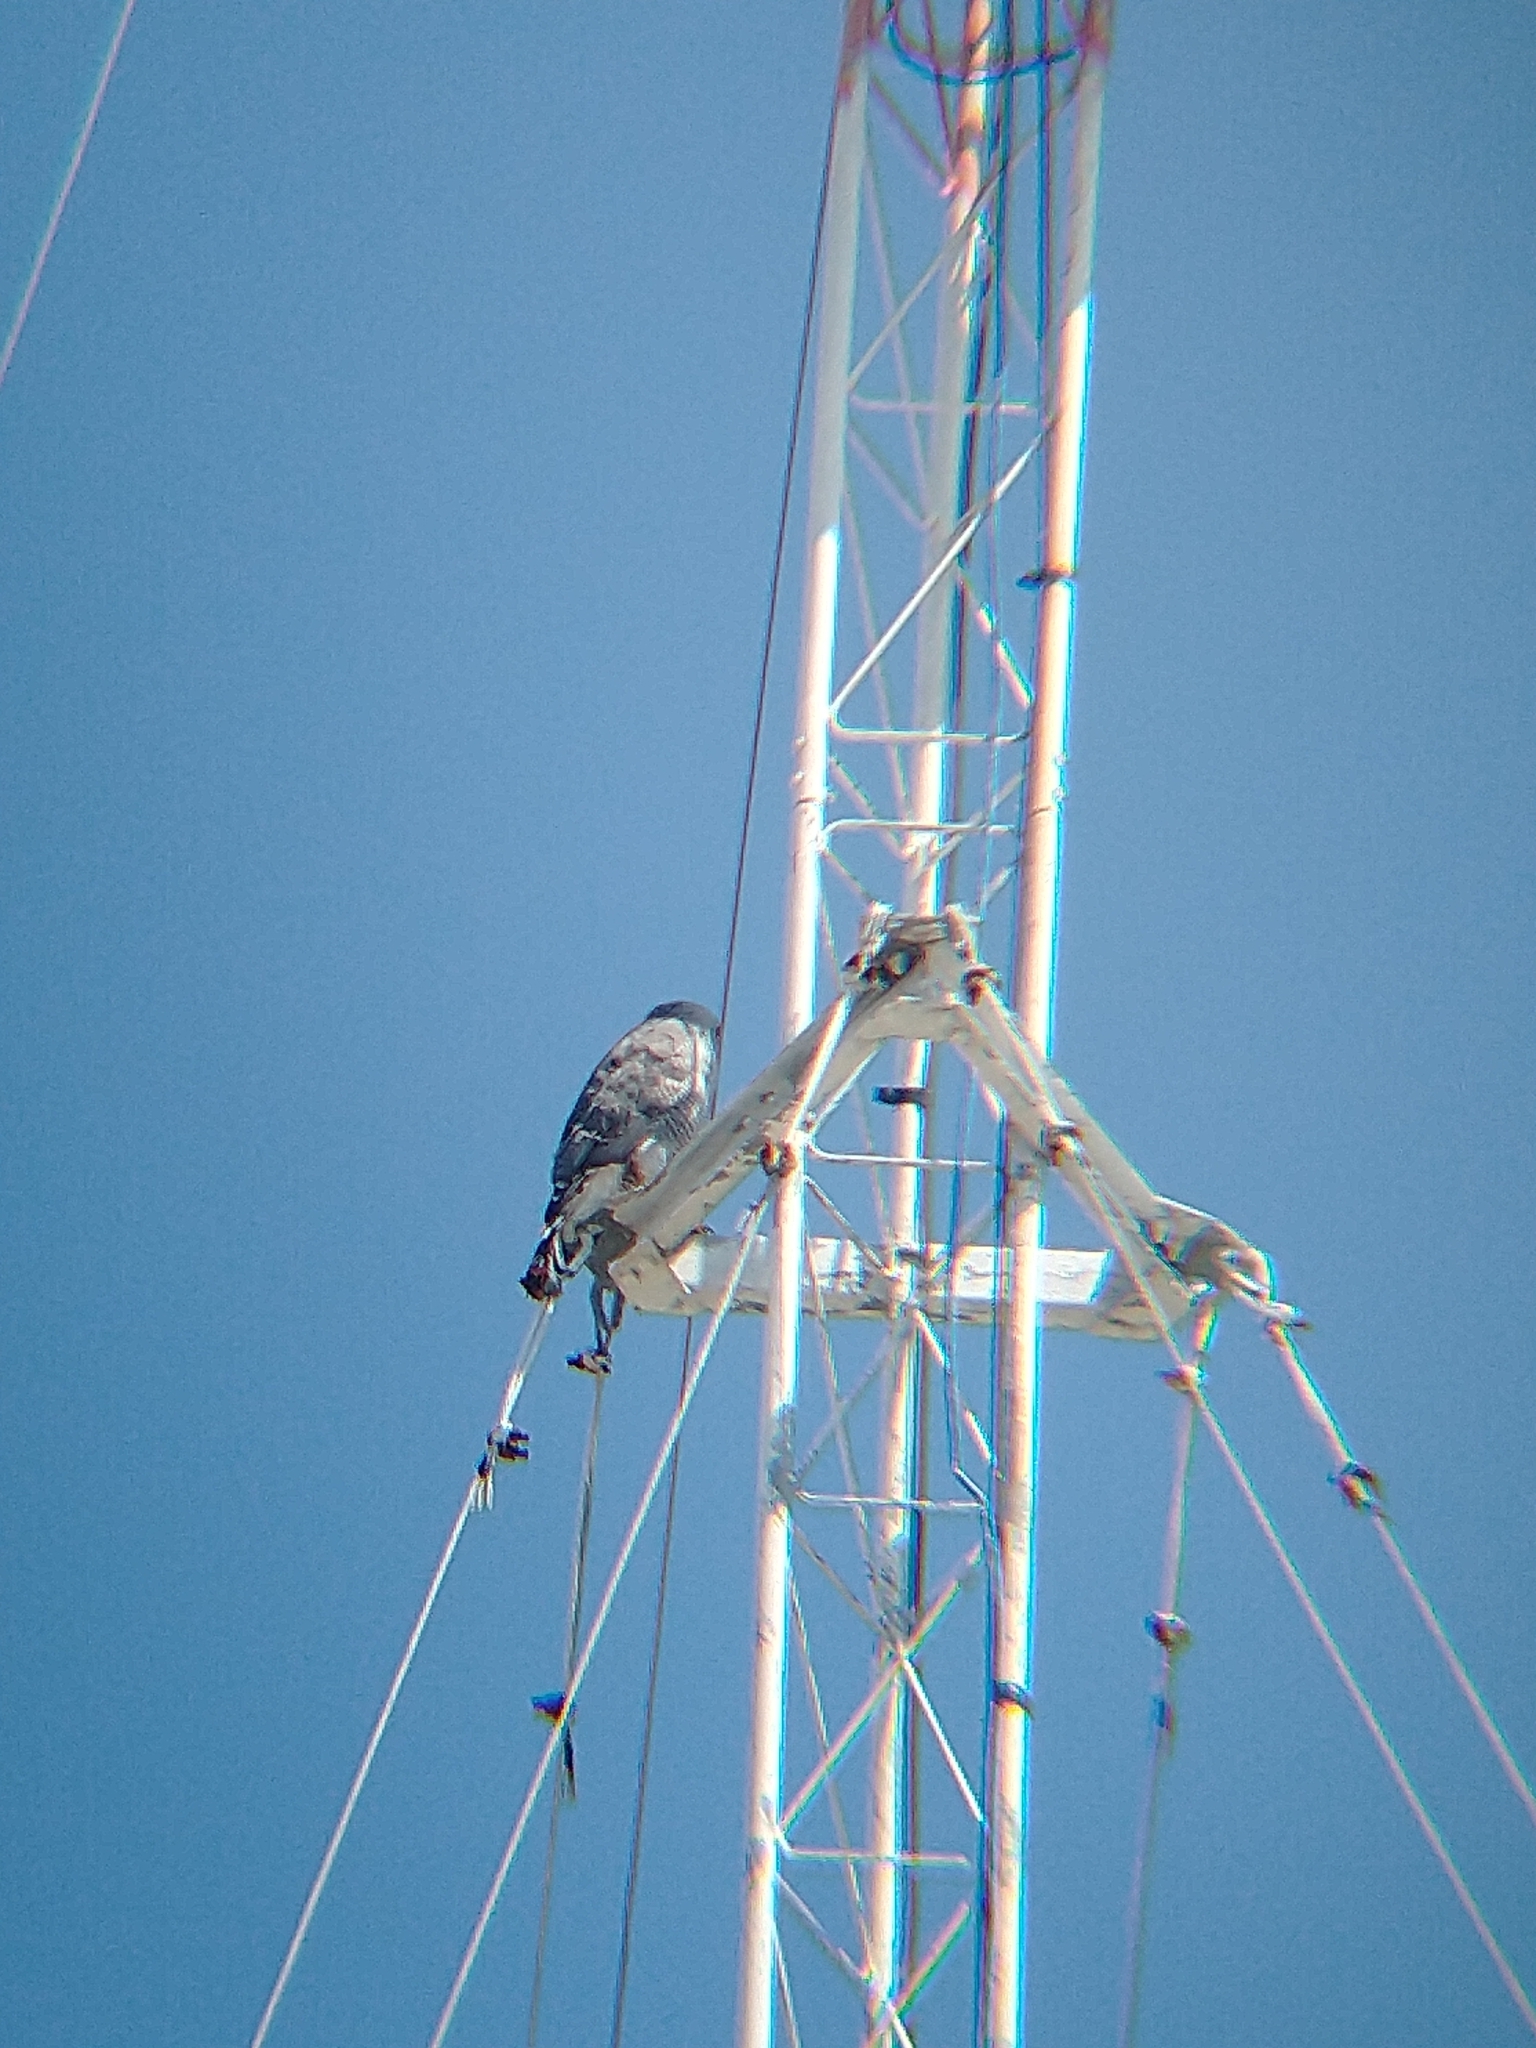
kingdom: Animalia
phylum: Chordata
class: Aves
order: Accipitriformes
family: Accipitridae
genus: Buteo
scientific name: Buteo nitidus
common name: Grey-lined hawk
